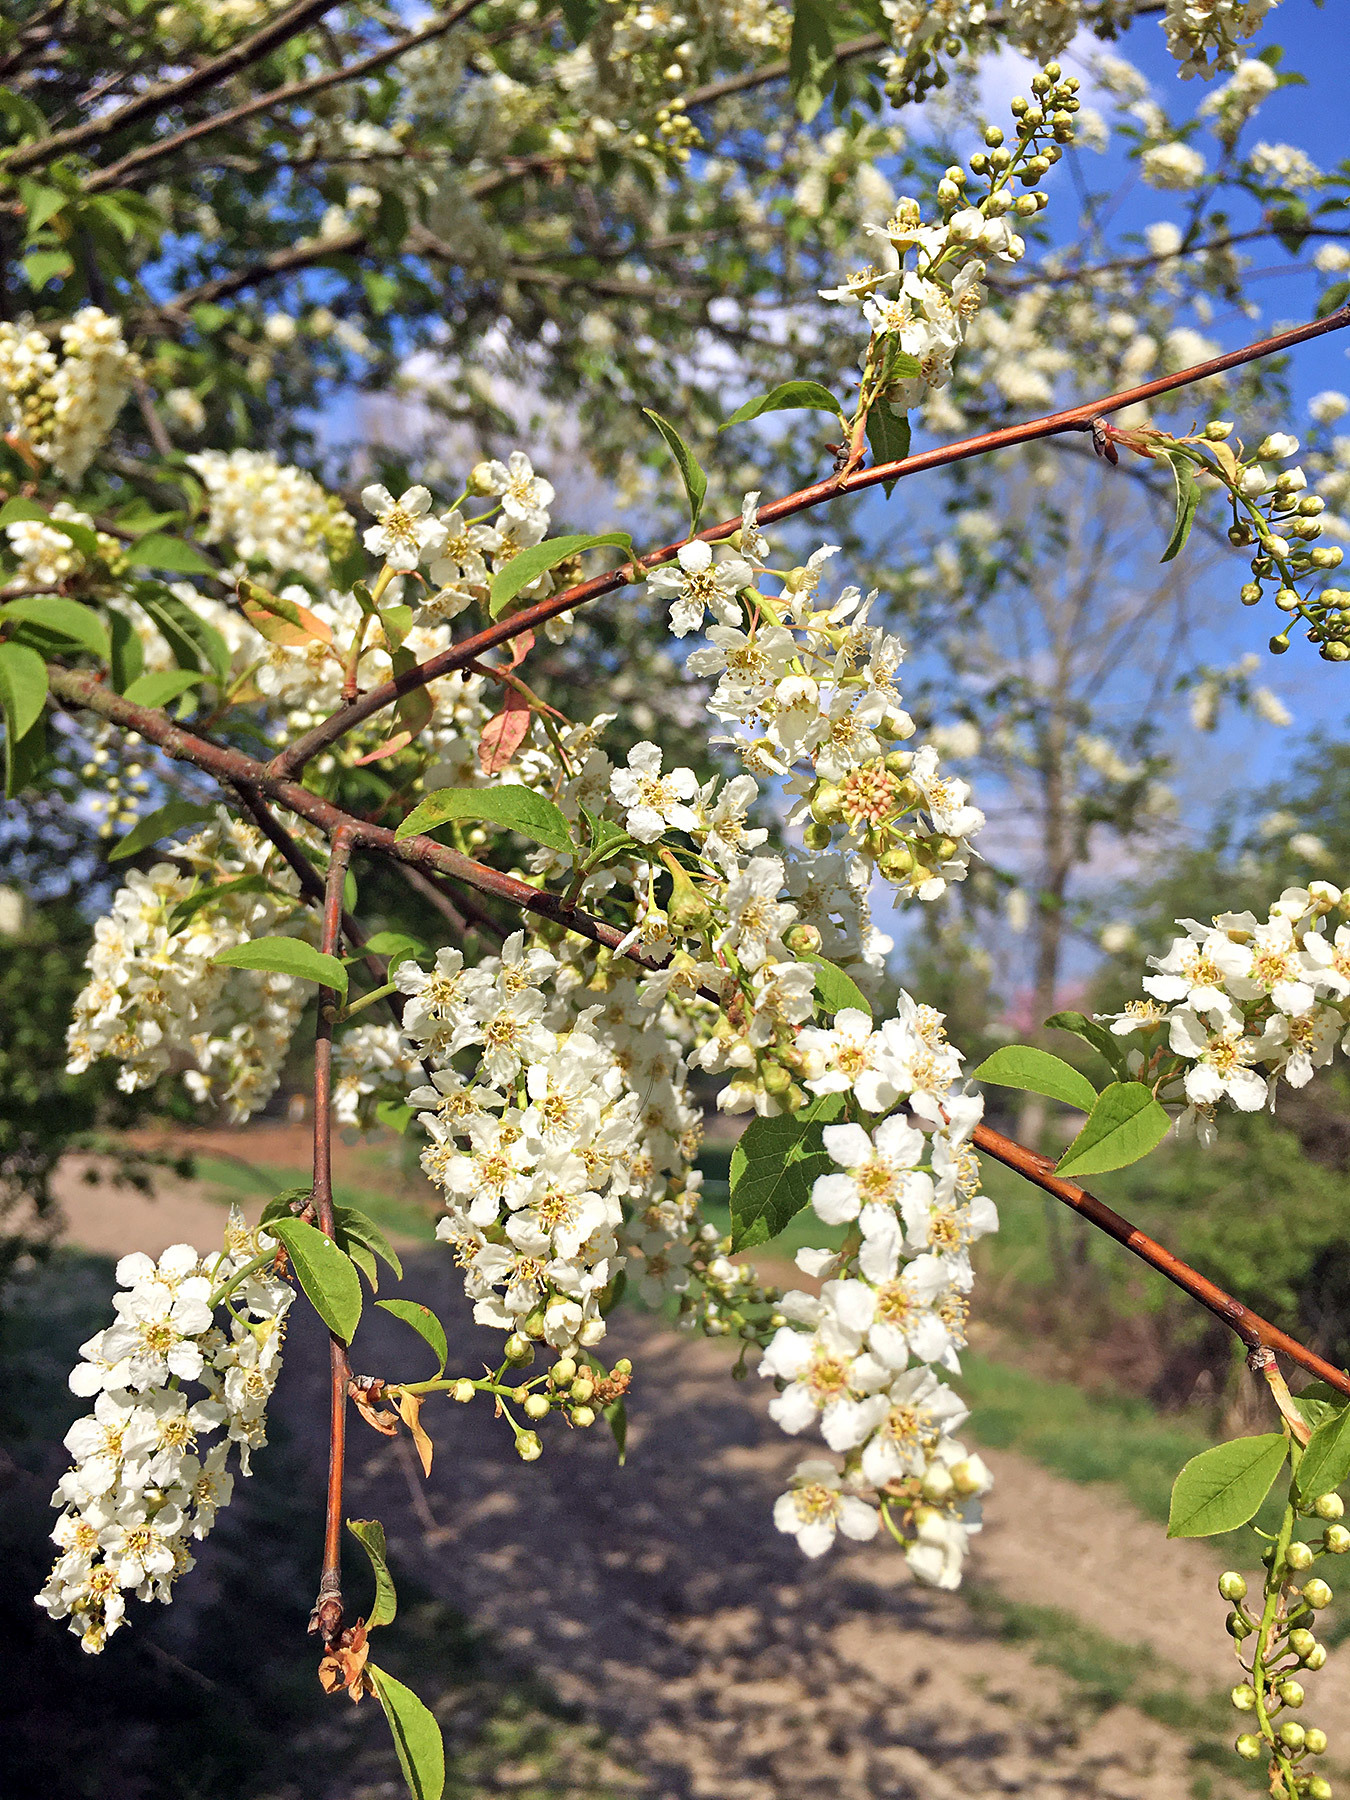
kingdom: Plantae
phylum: Tracheophyta
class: Magnoliopsida
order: Rosales
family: Rosaceae
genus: Prunus
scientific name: Prunus padus
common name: Bird cherry
